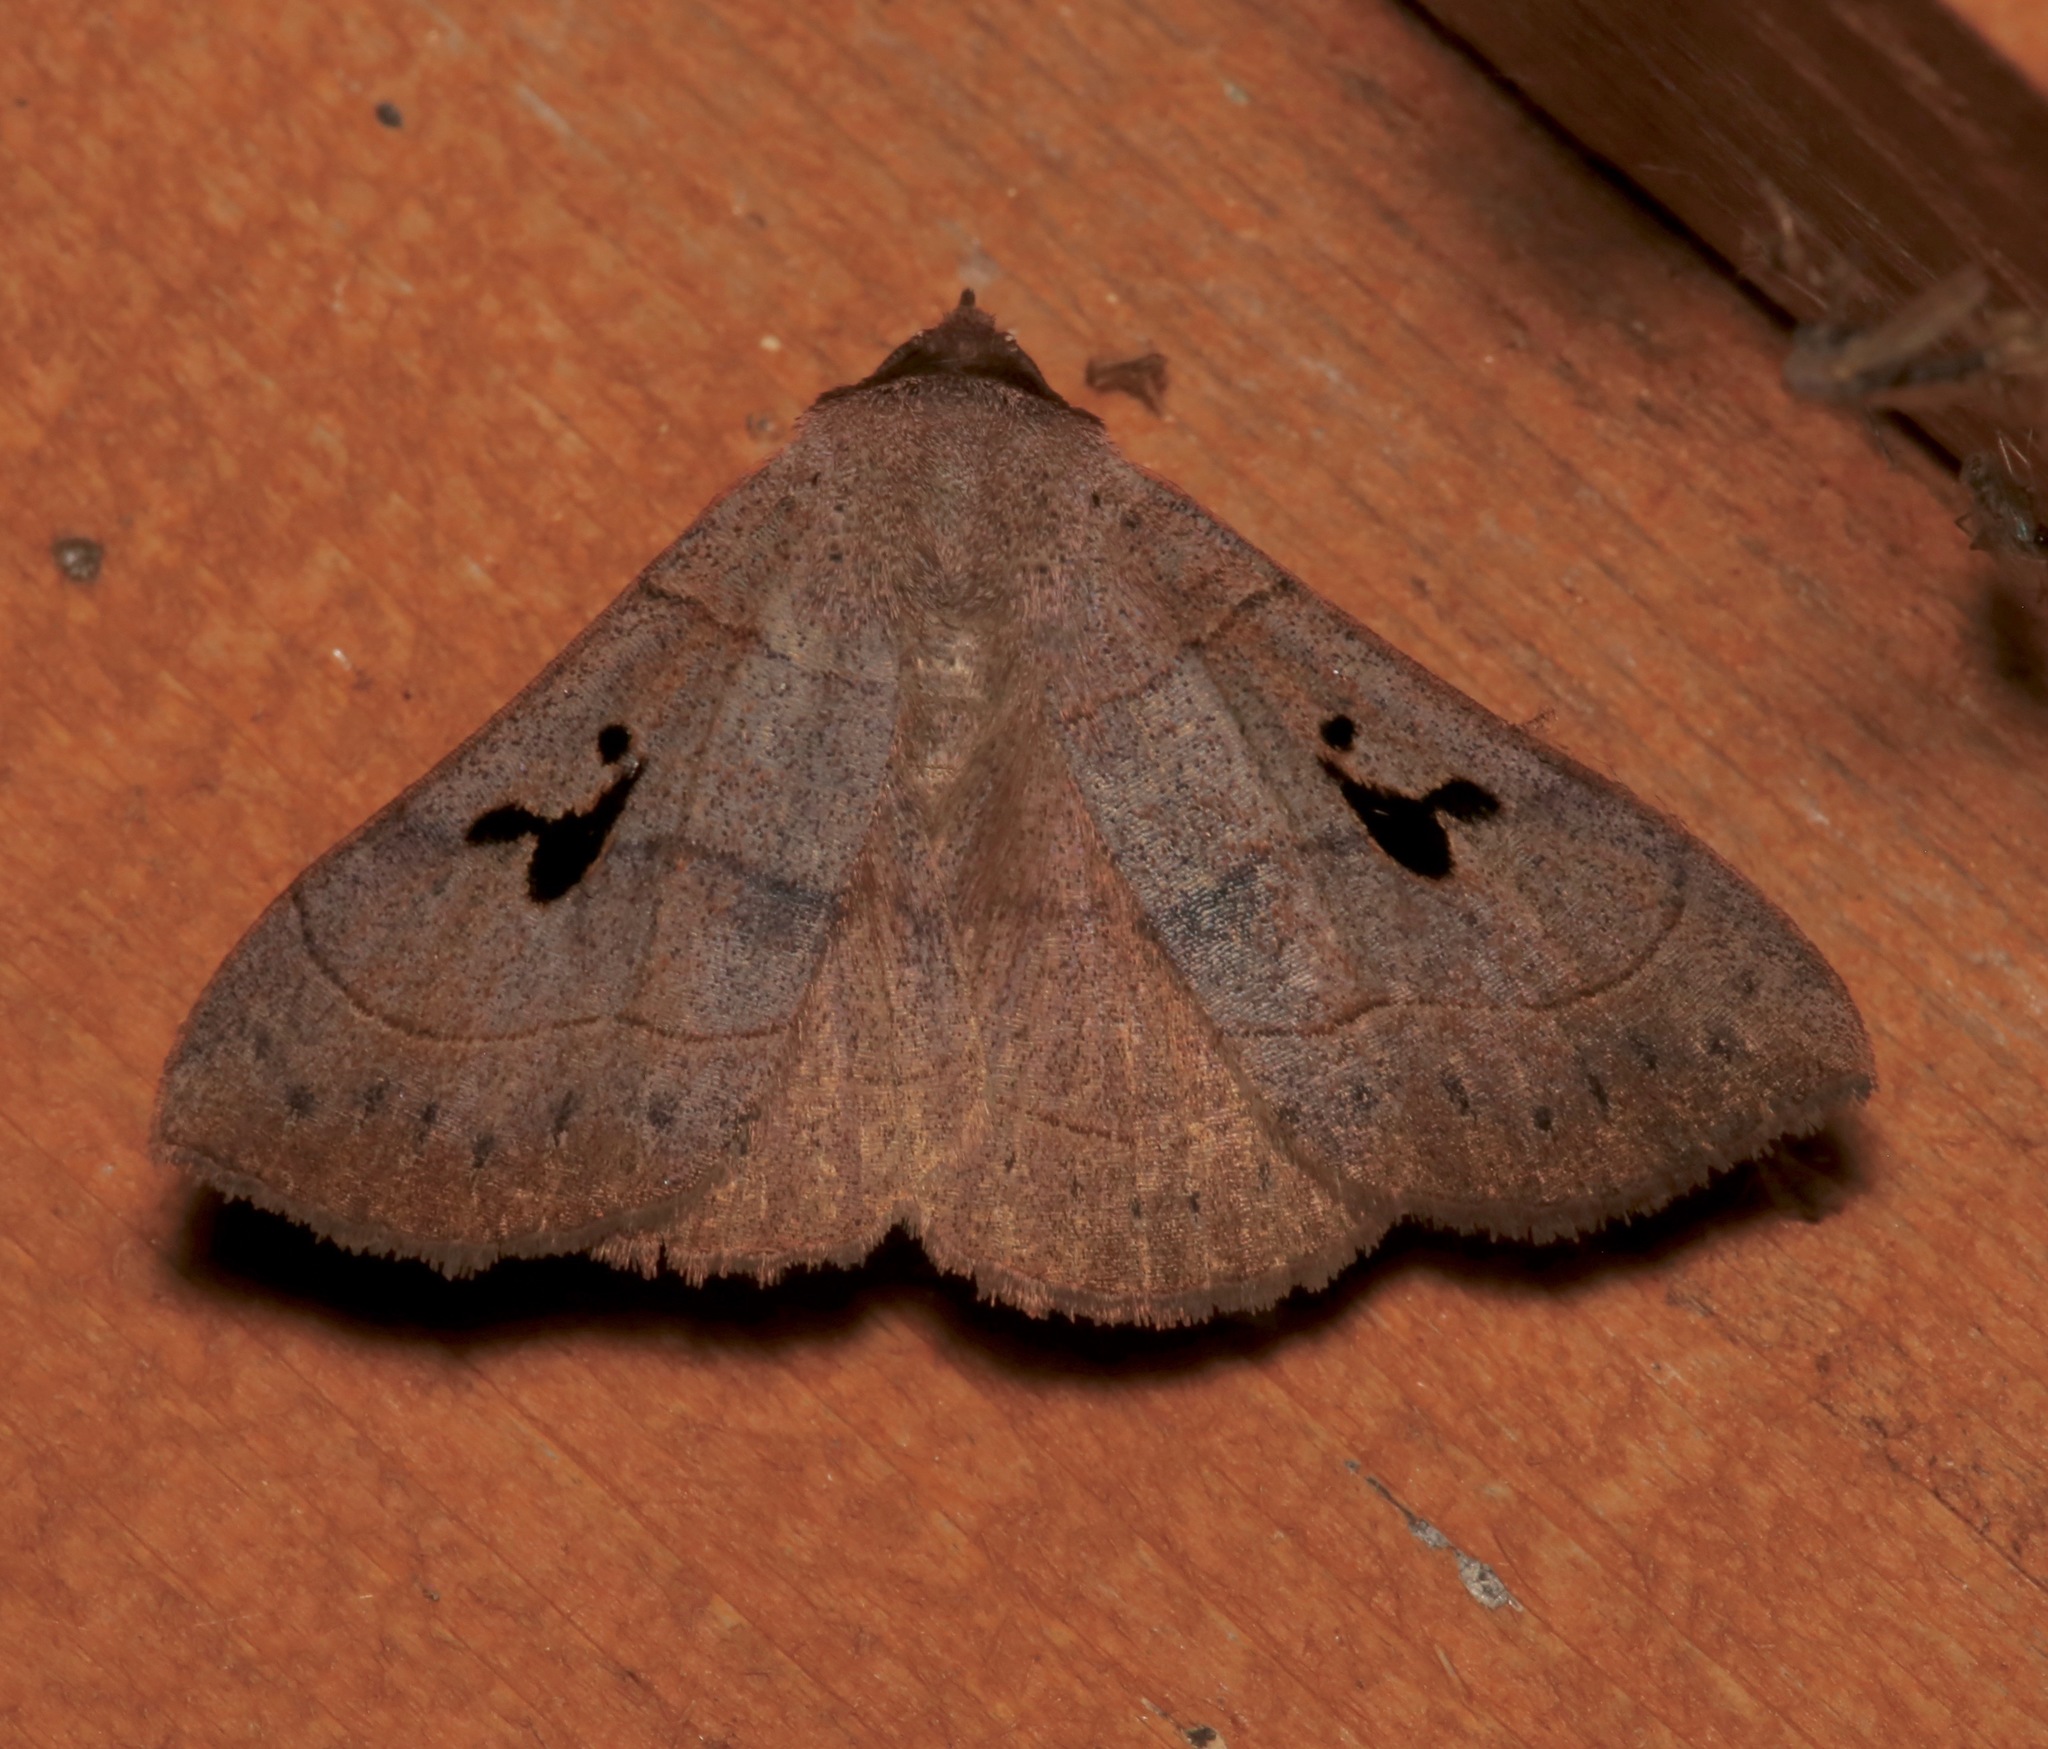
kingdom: Animalia
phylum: Arthropoda
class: Insecta
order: Lepidoptera
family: Erebidae
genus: Panopoda
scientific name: Panopoda carneicosta
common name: Brown panopoda moth
